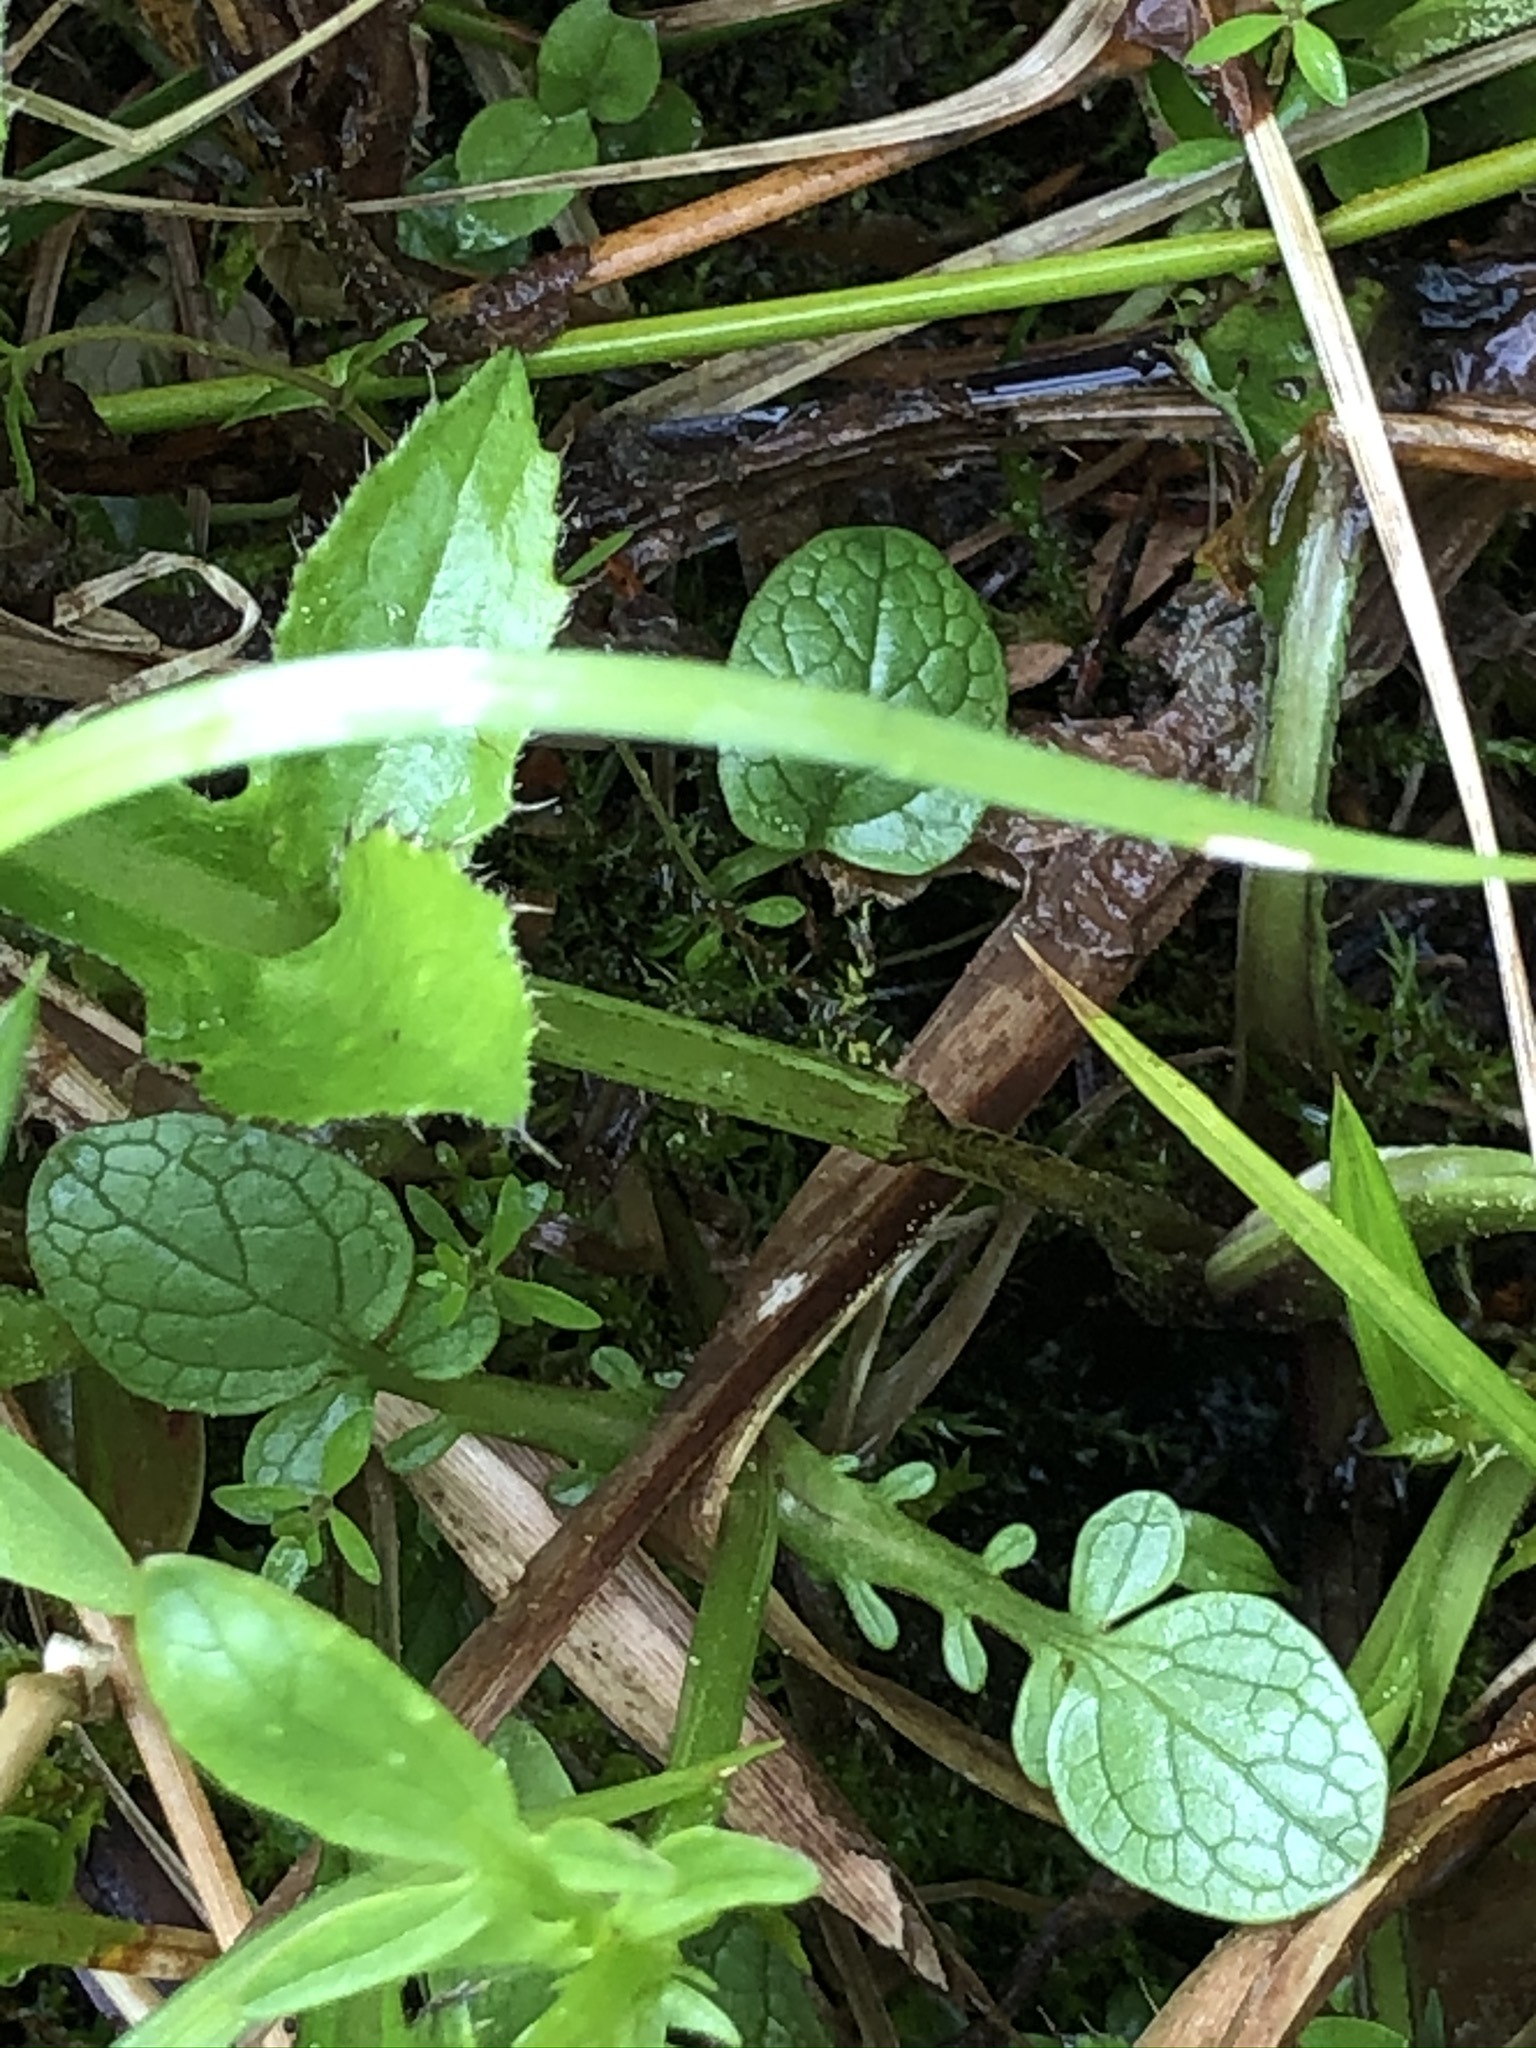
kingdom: Plantae
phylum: Tracheophyta
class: Magnoliopsida
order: Dipsacales
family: Caprifoliaceae
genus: Valeriana
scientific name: Valeriana dioica
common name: Marsh valerian
